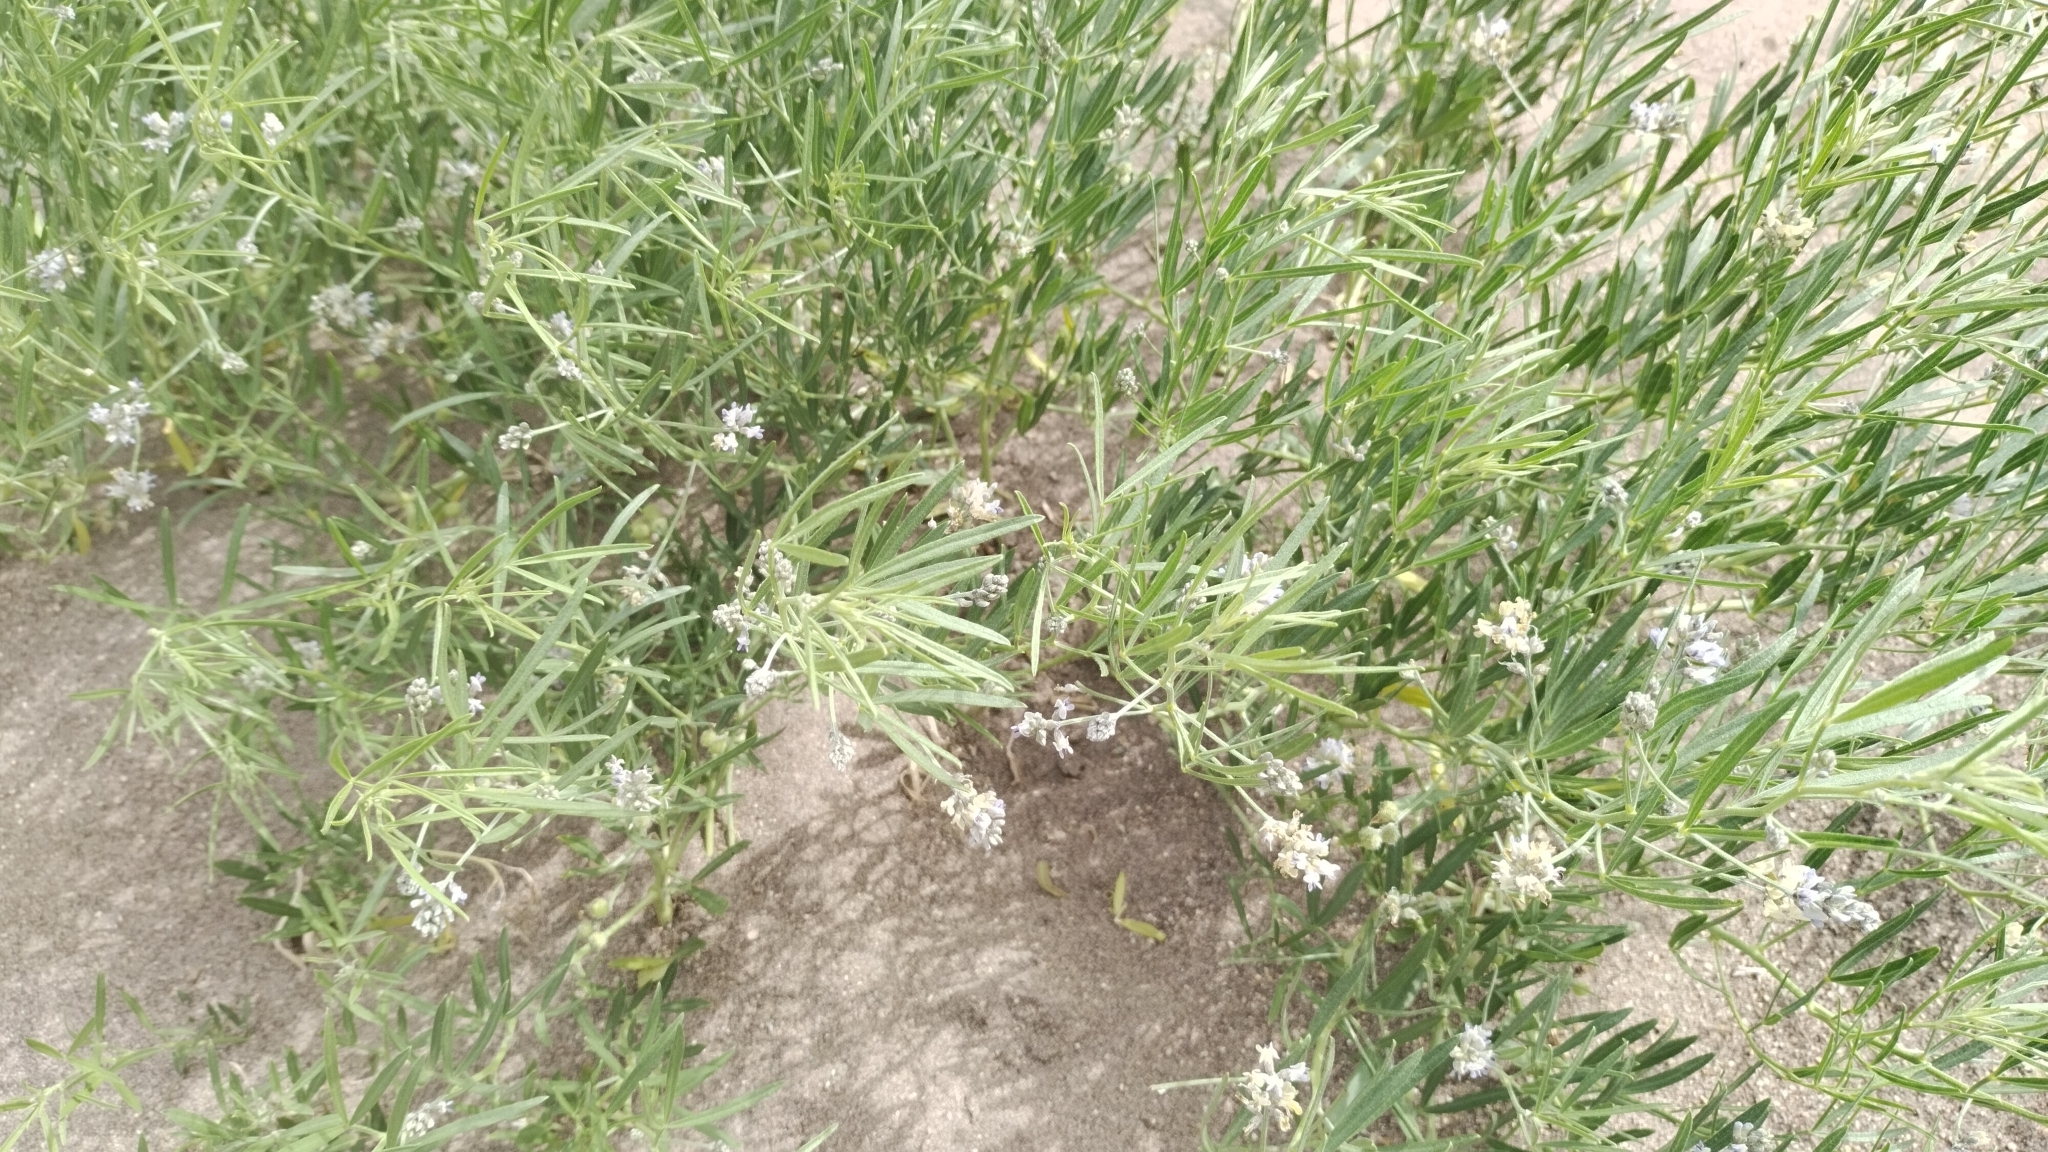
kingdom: Plantae
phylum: Tracheophyta
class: Magnoliopsida
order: Fabales
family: Fabaceae
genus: Ladeania
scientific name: Ladeania lanceolata
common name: Dune scurf-pea
